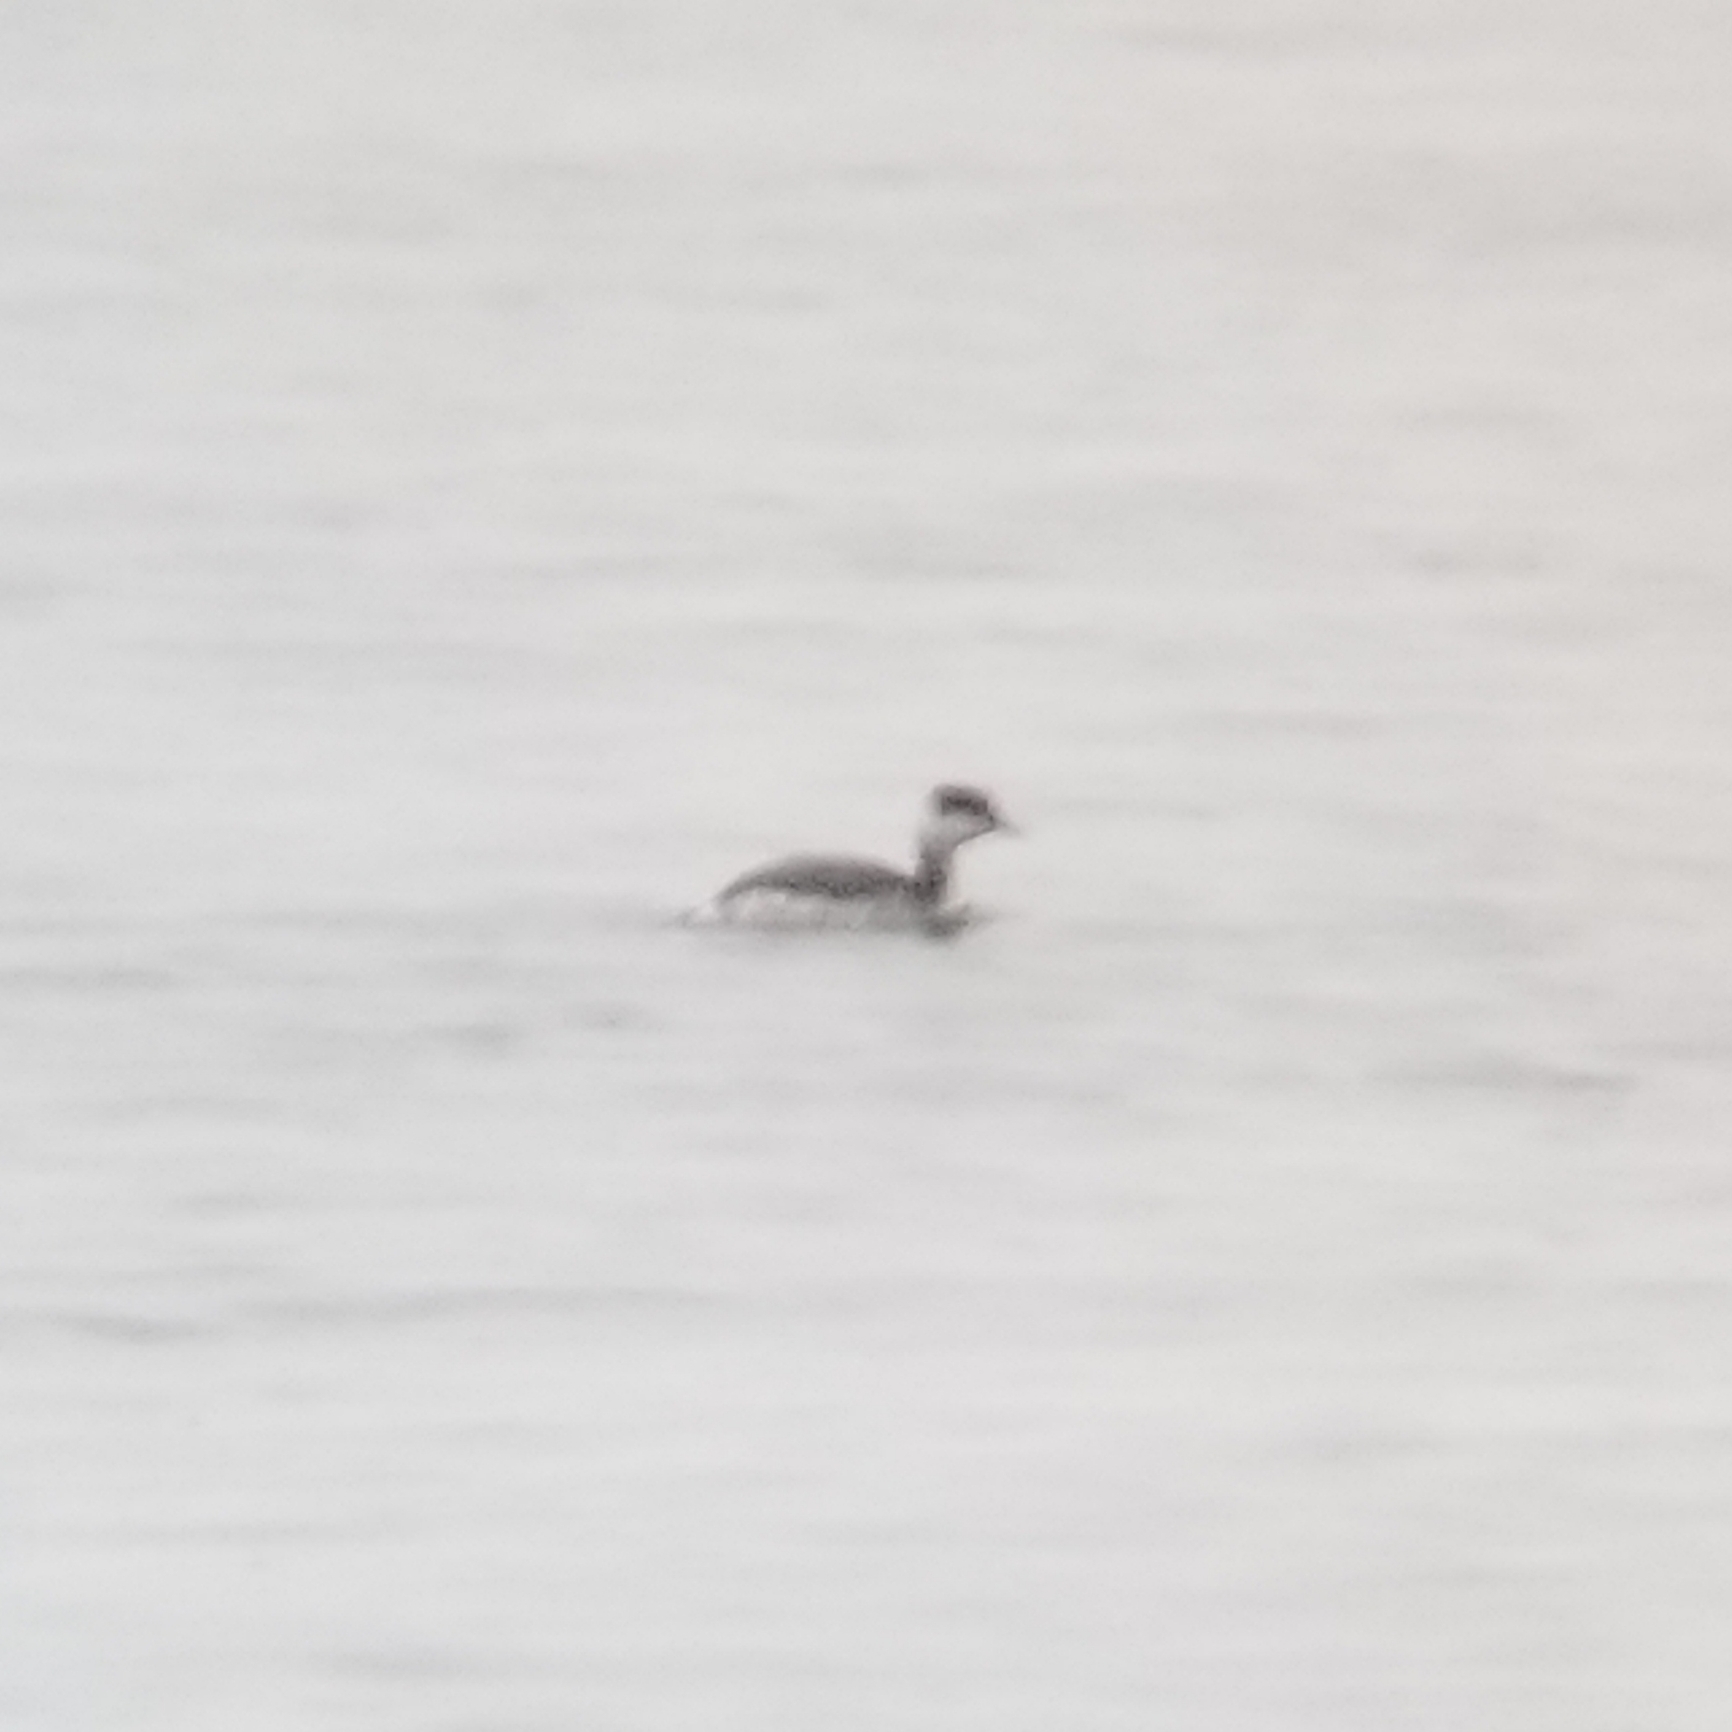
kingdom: Animalia
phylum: Chordata
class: Aves
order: Podicipediformes
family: Podicipedidae
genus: Podiceps
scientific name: Podiceps auritus
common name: Horned grebe
